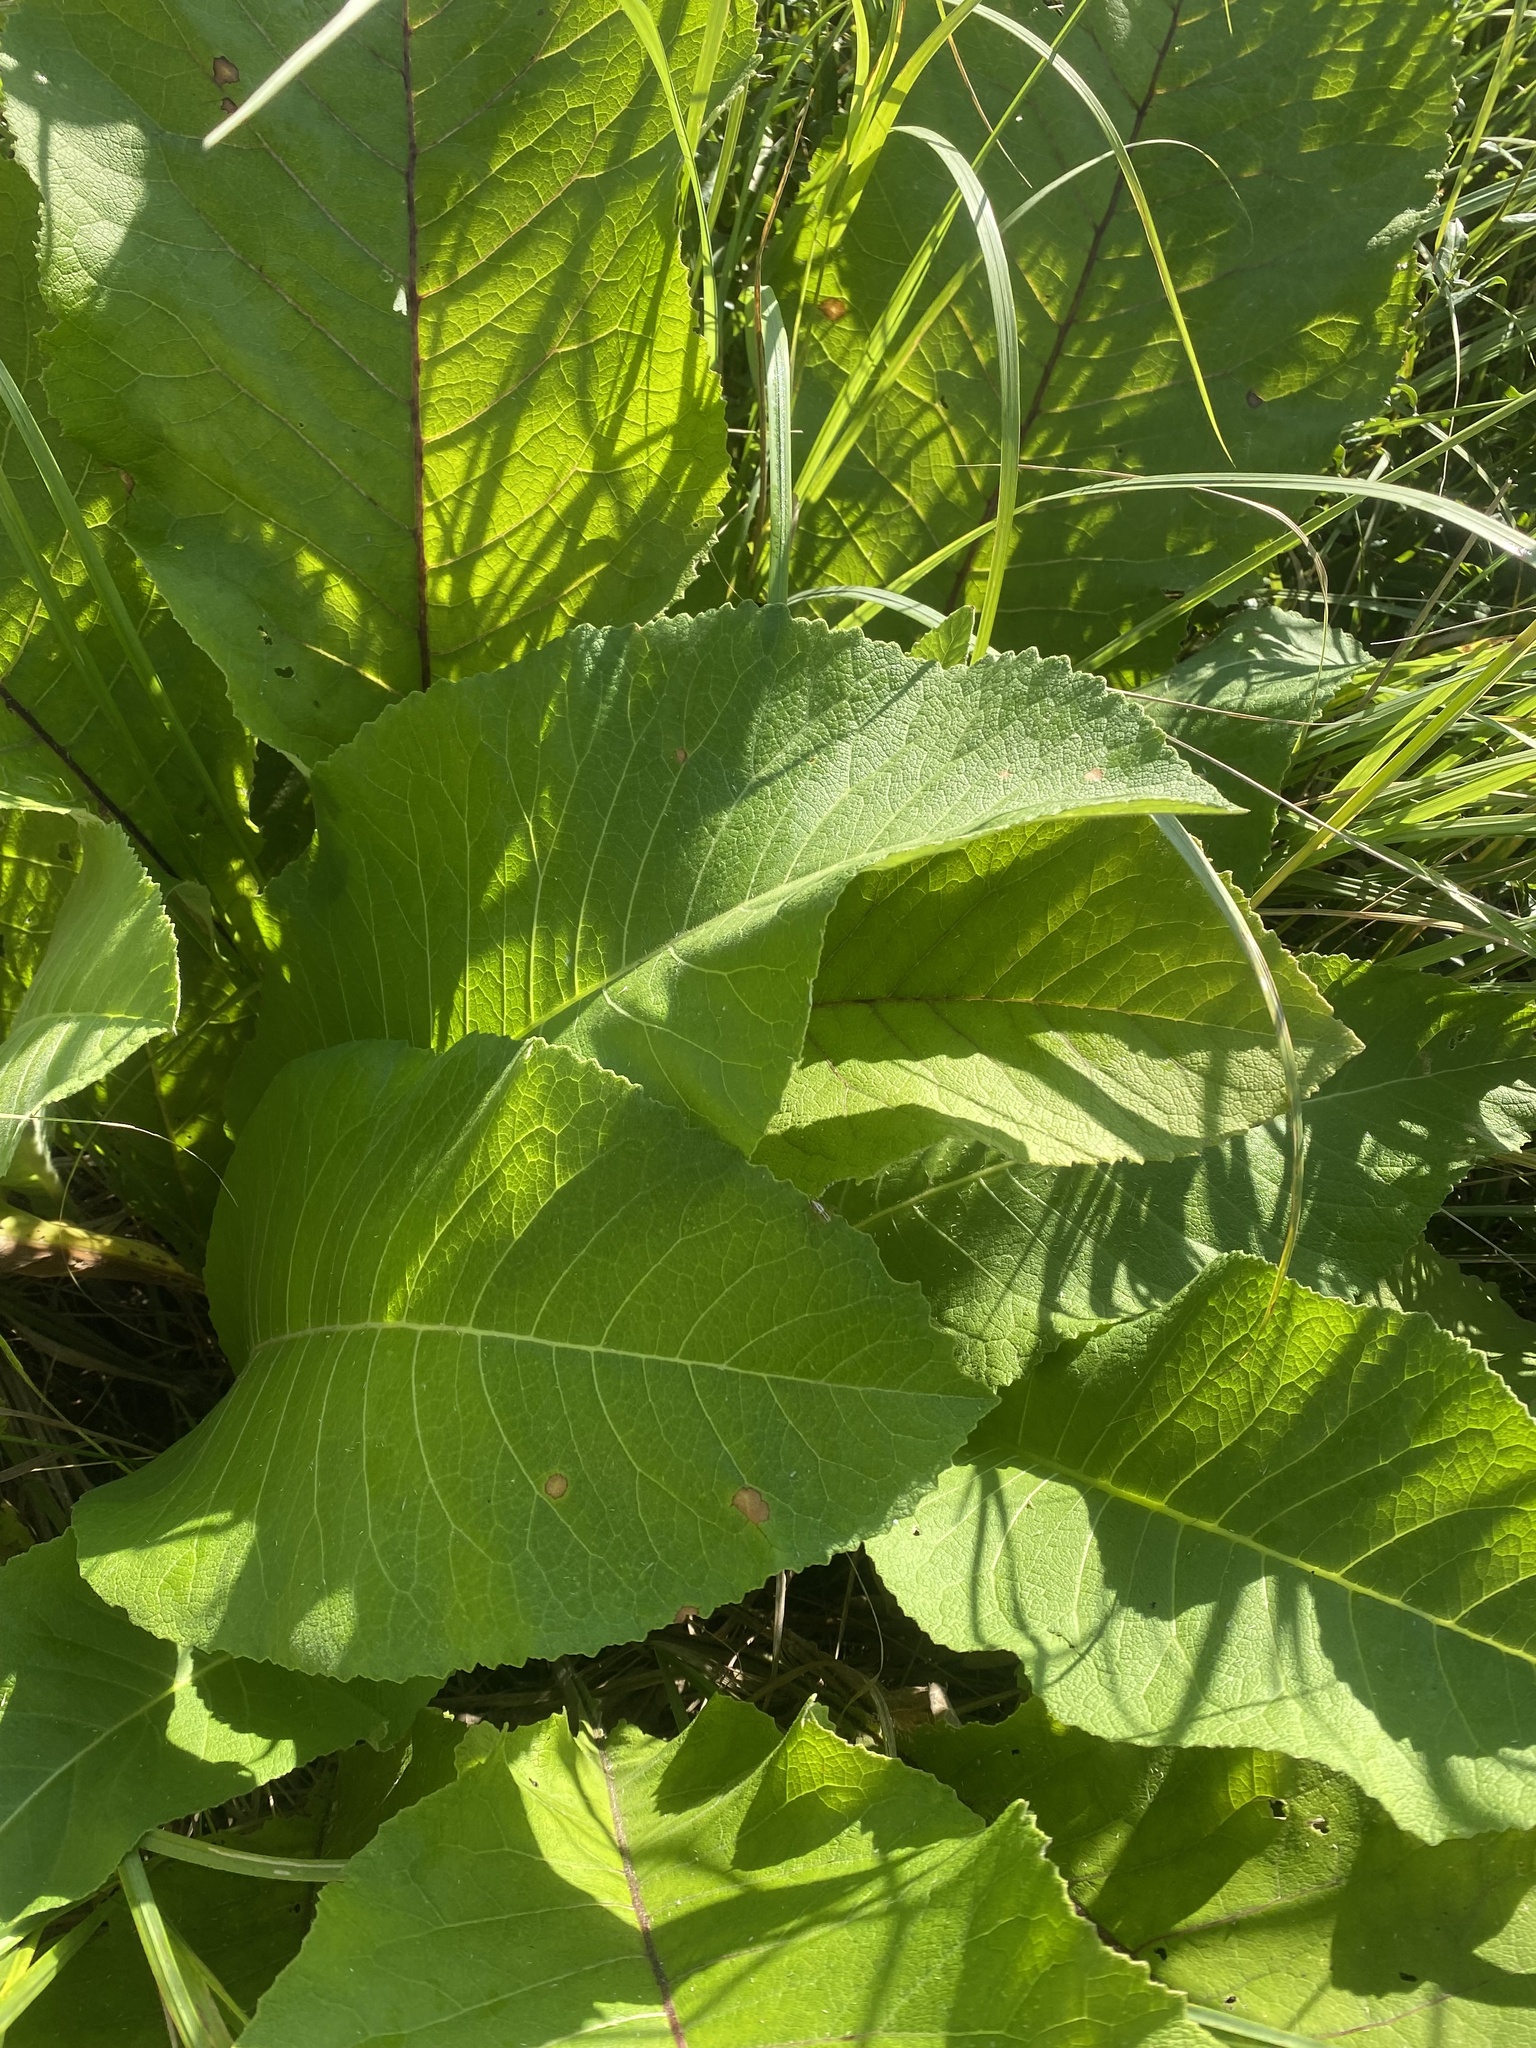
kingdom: Plantae
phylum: Tracheophyta
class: Magnoliopsida
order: Asterales
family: Asteraceae
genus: Inula
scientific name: Inula helenium
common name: Elecampane
